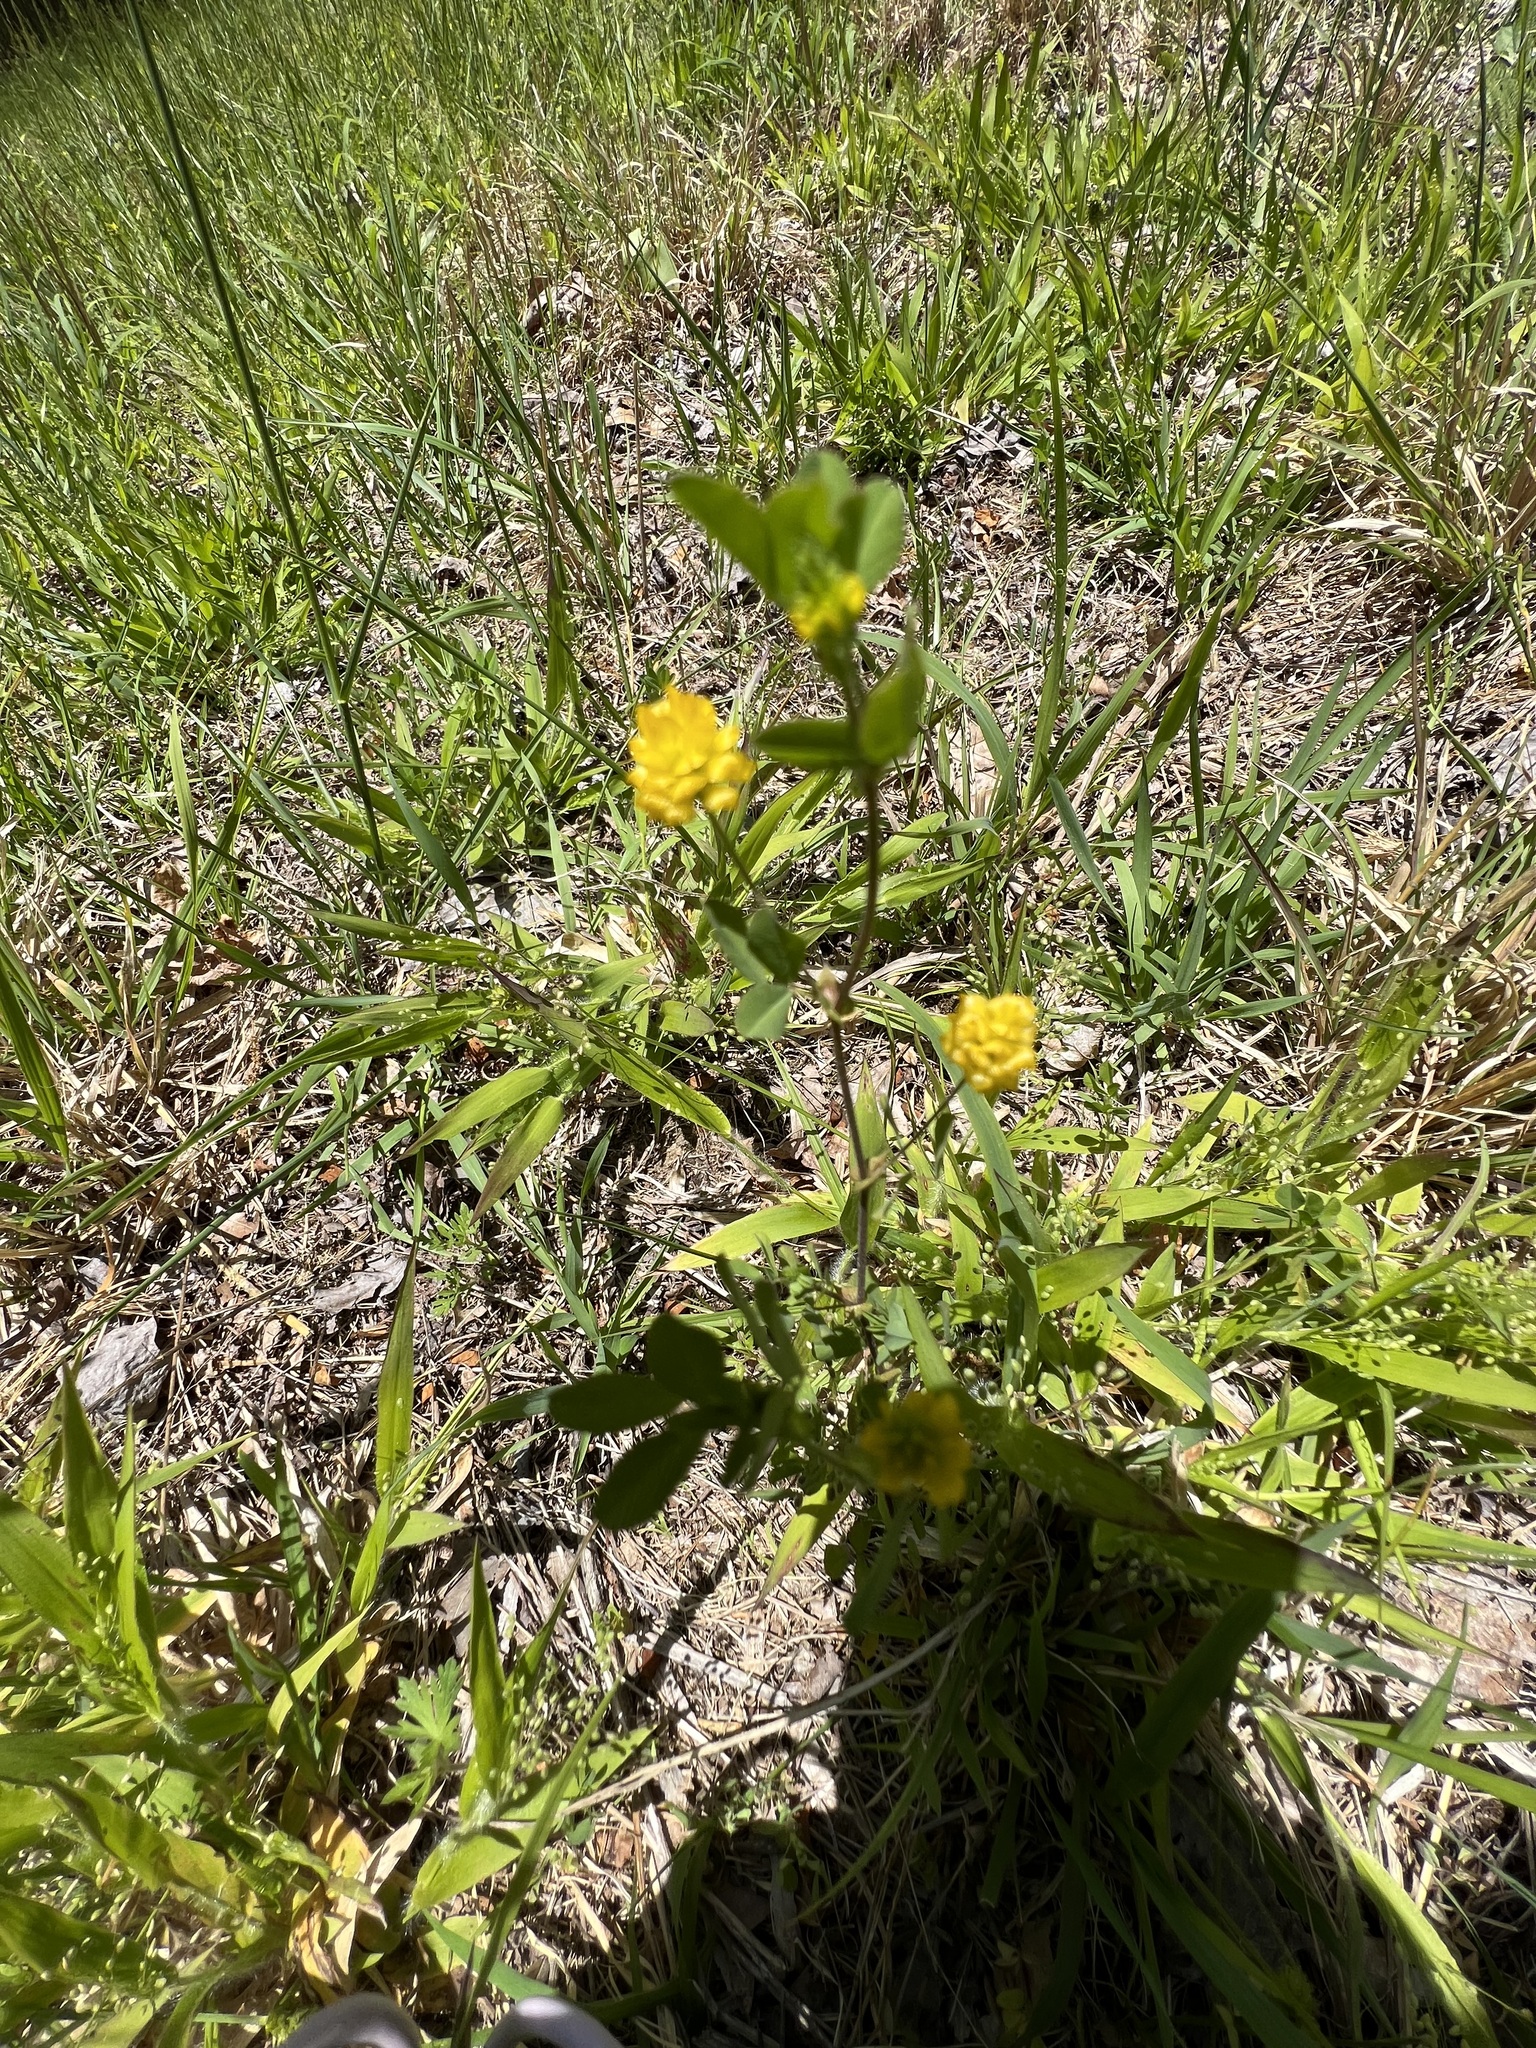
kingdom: Plantae
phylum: Tracheophyta
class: Magnoliopsida
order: Fabales
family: Fabaceae
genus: Trifolium
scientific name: Trifolium campestre
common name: Field clover
